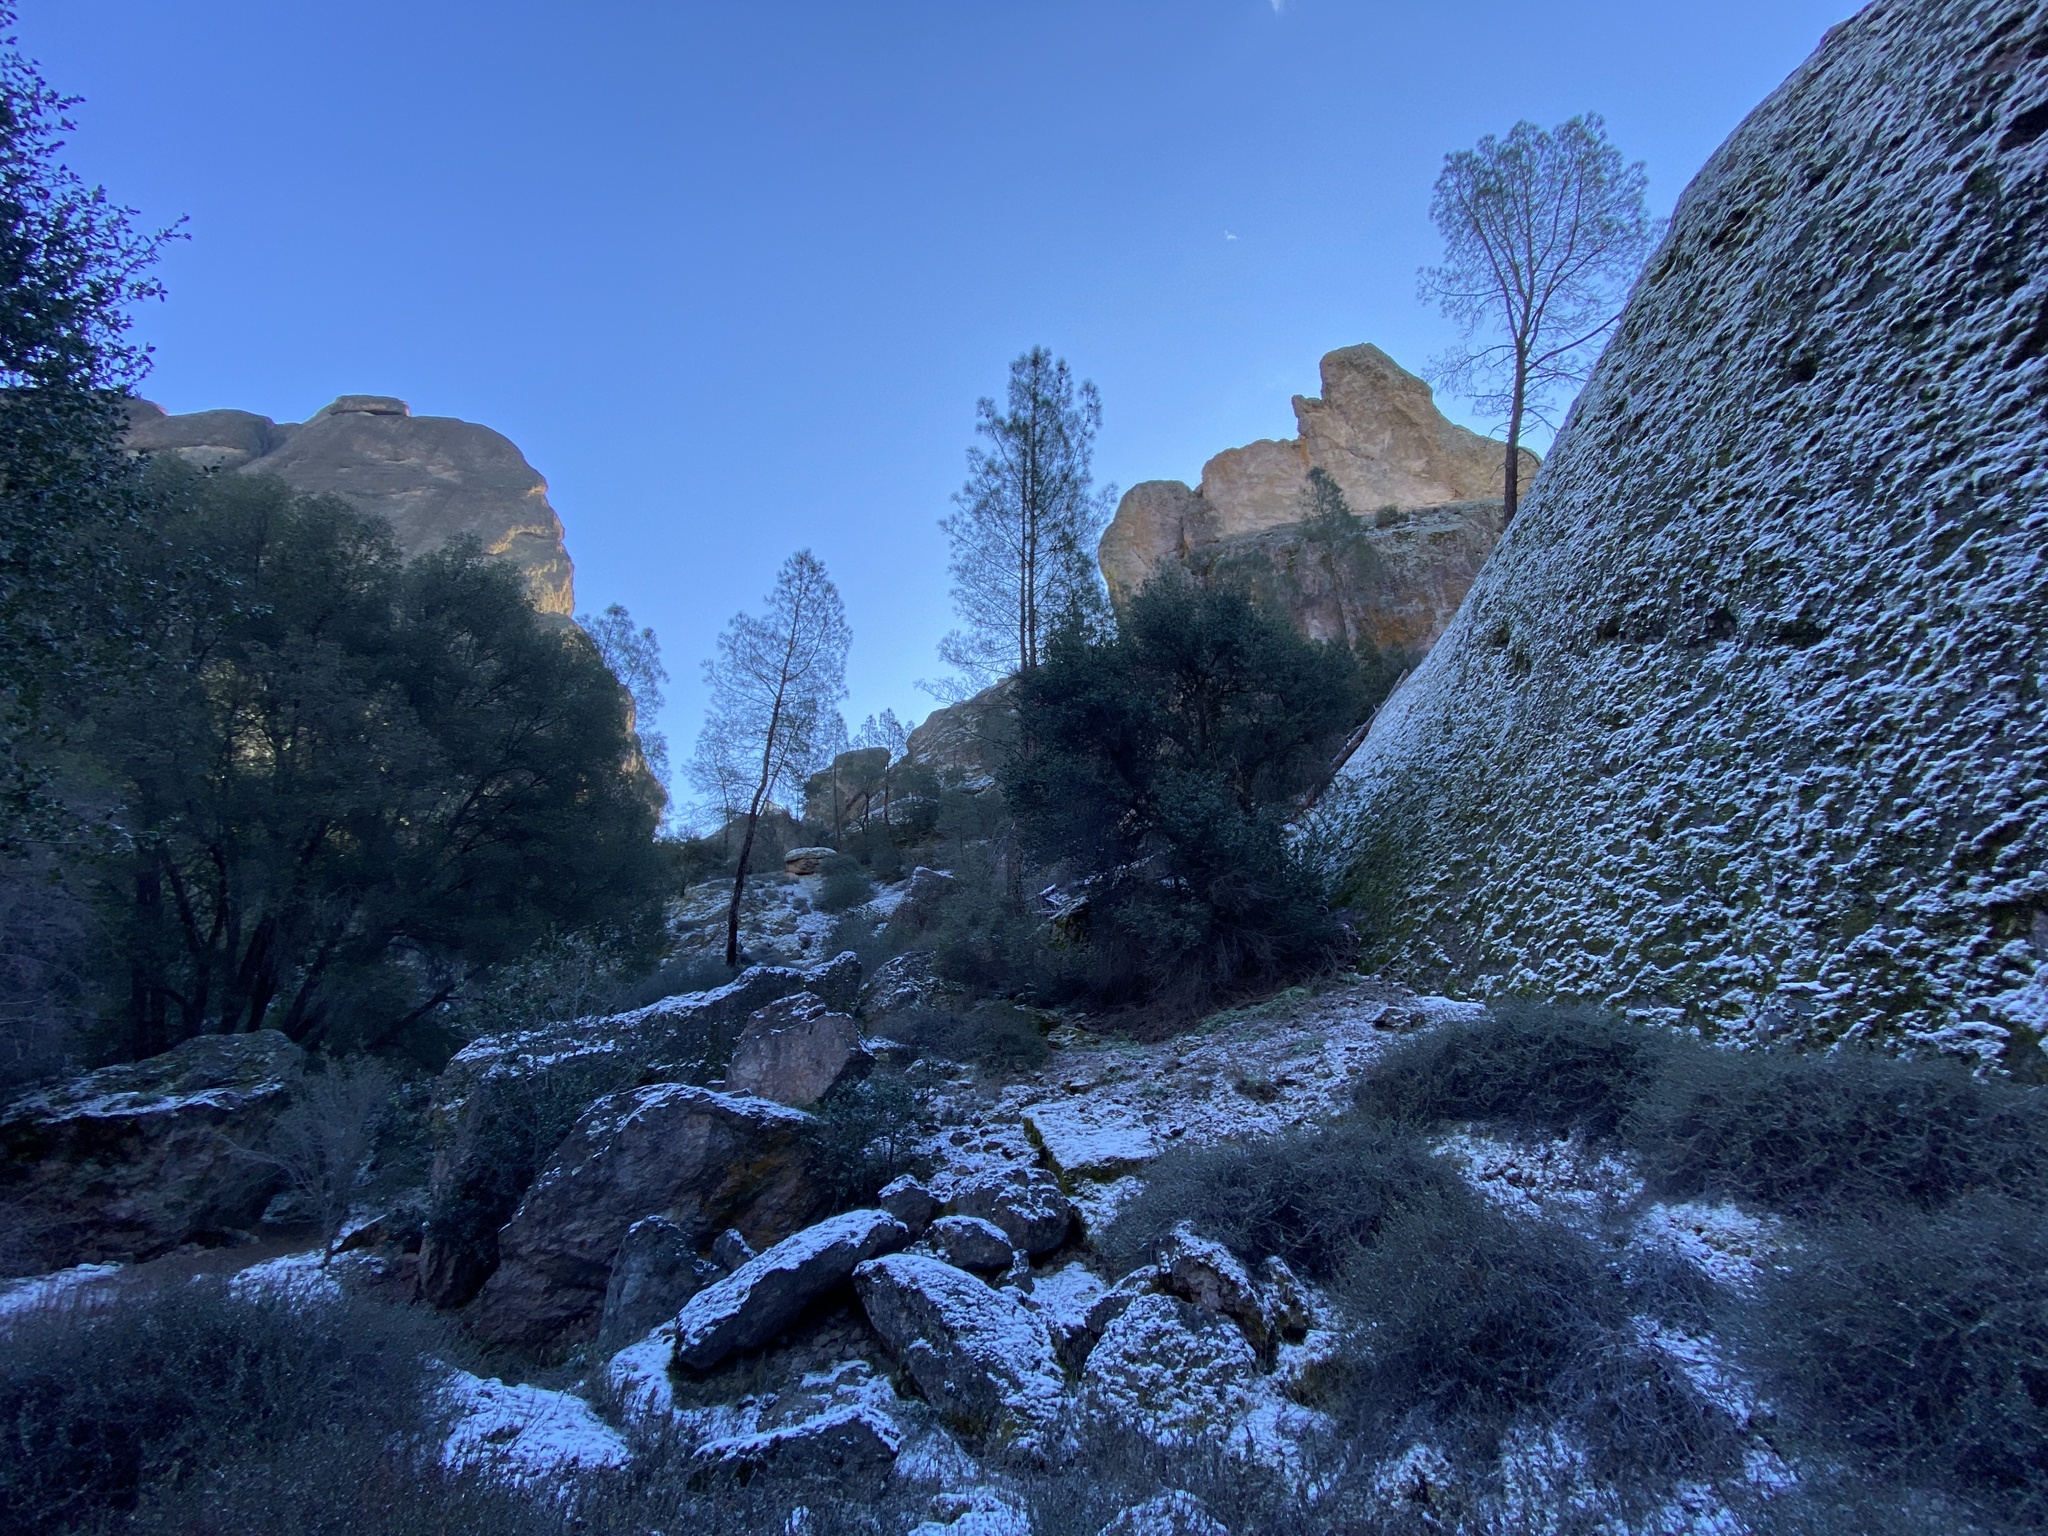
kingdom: Plantae
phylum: Tracheophyta
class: Pinopsida
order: Pinales
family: Pinaceae
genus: Pinus
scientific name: Pinus sabiniana
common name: Bull pine
